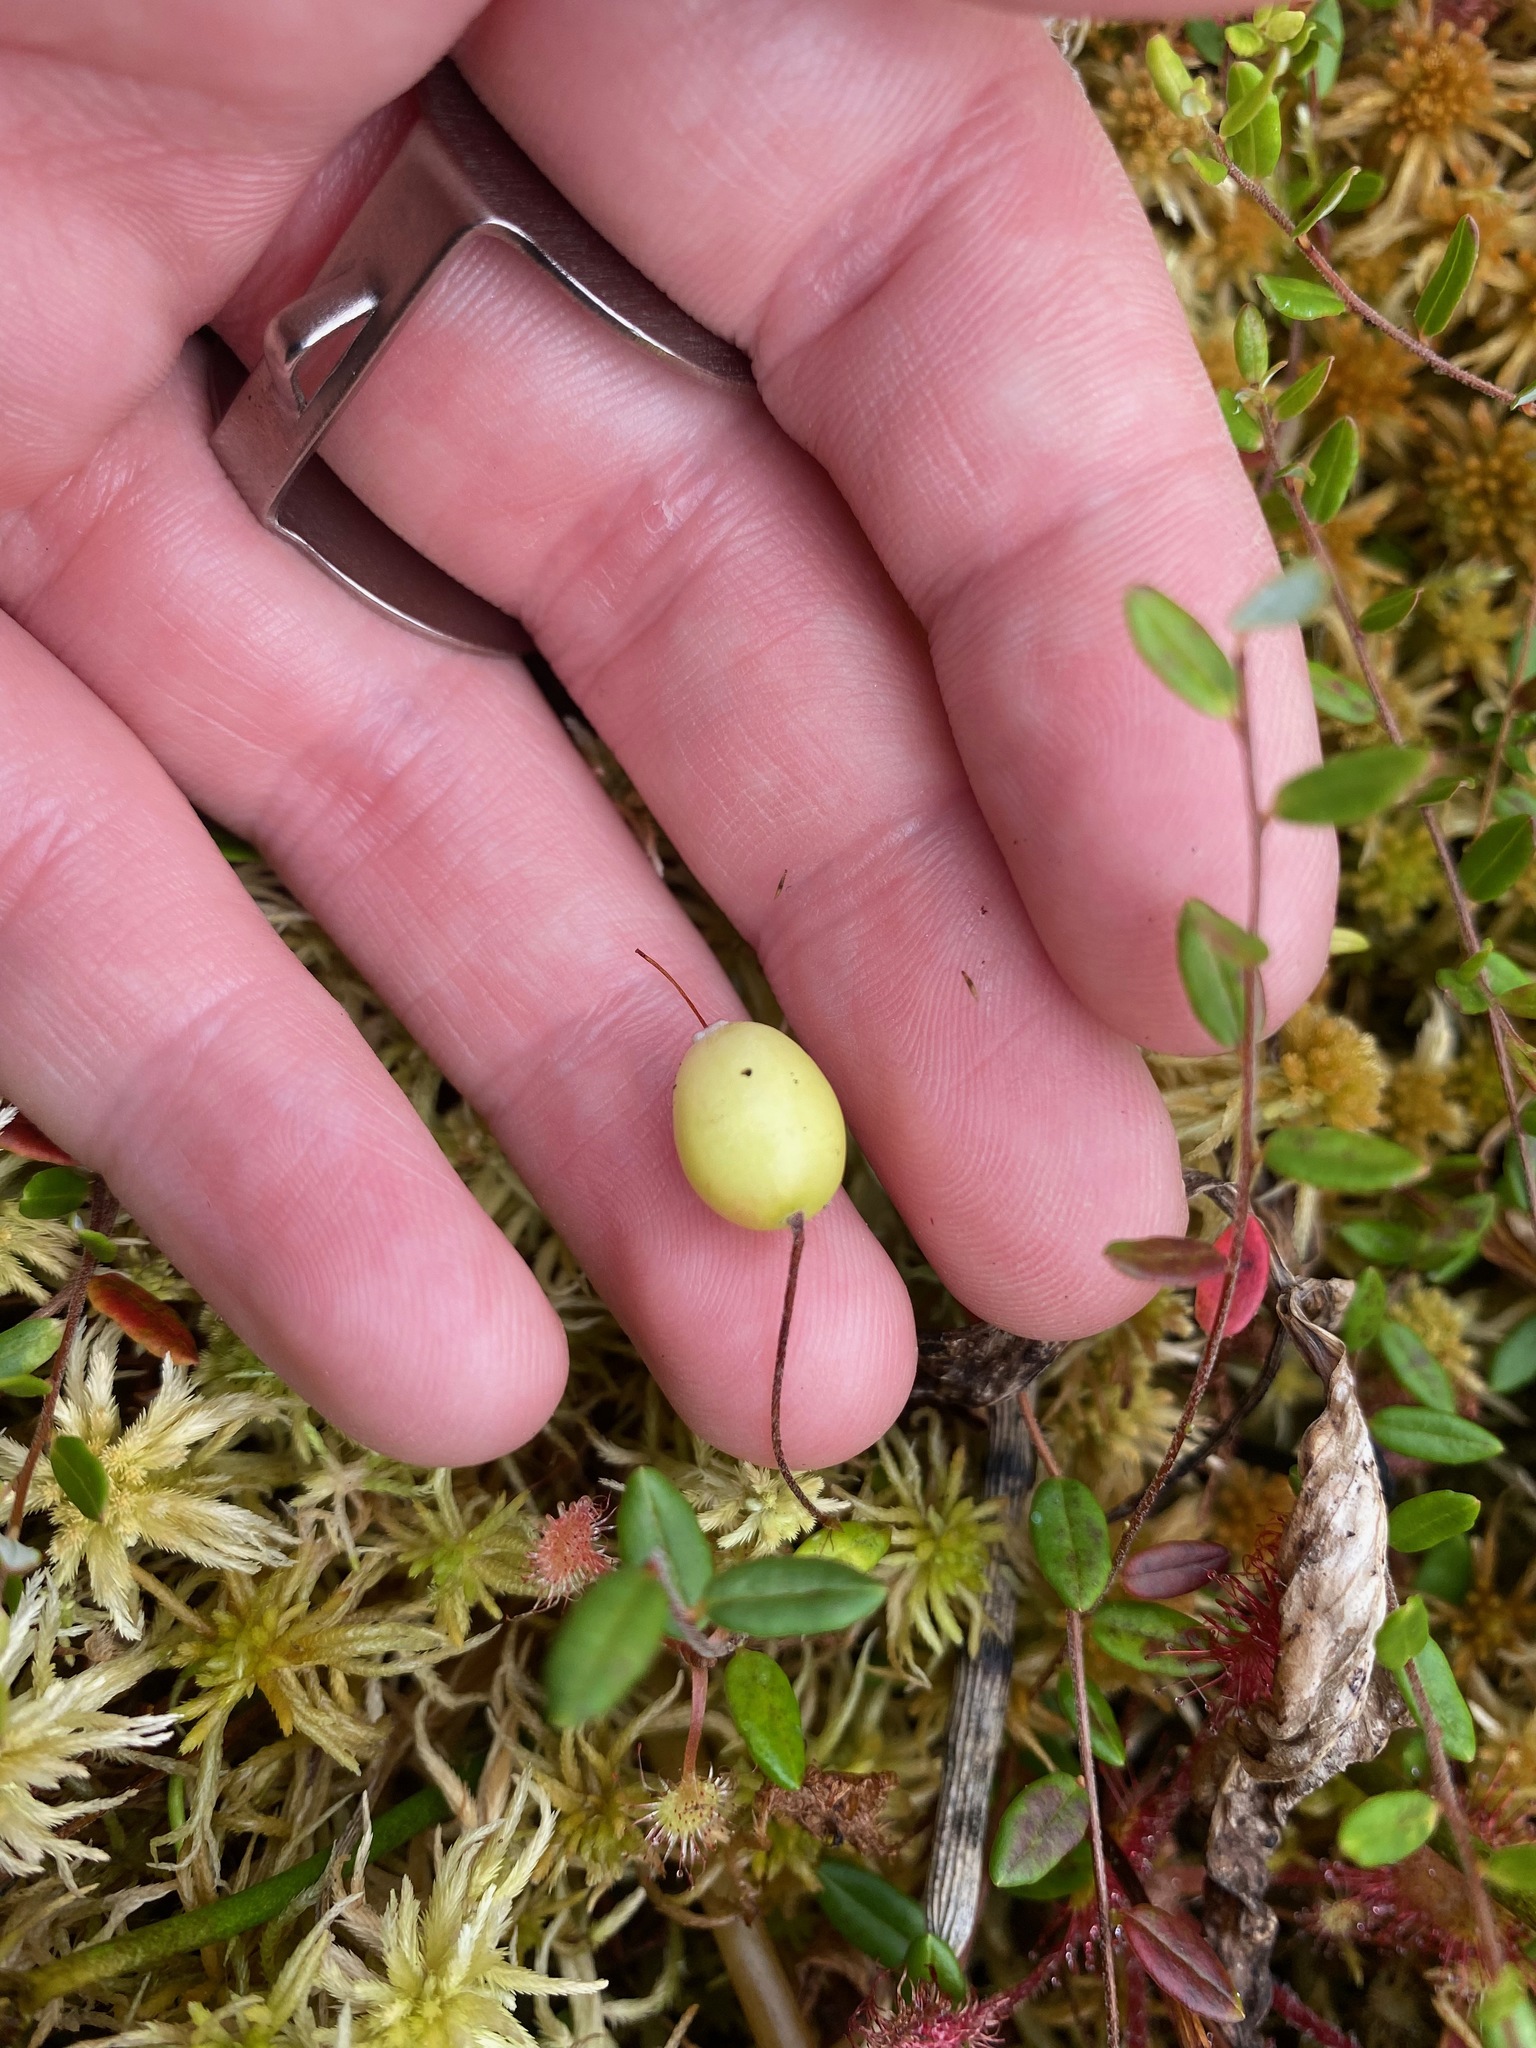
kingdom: Plantae
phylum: Tracheophyta
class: Magnoliopsida
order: Ericales
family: Ericaceae
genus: Vaccinium
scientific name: Vaccinium oxycoccos
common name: Cranberry
